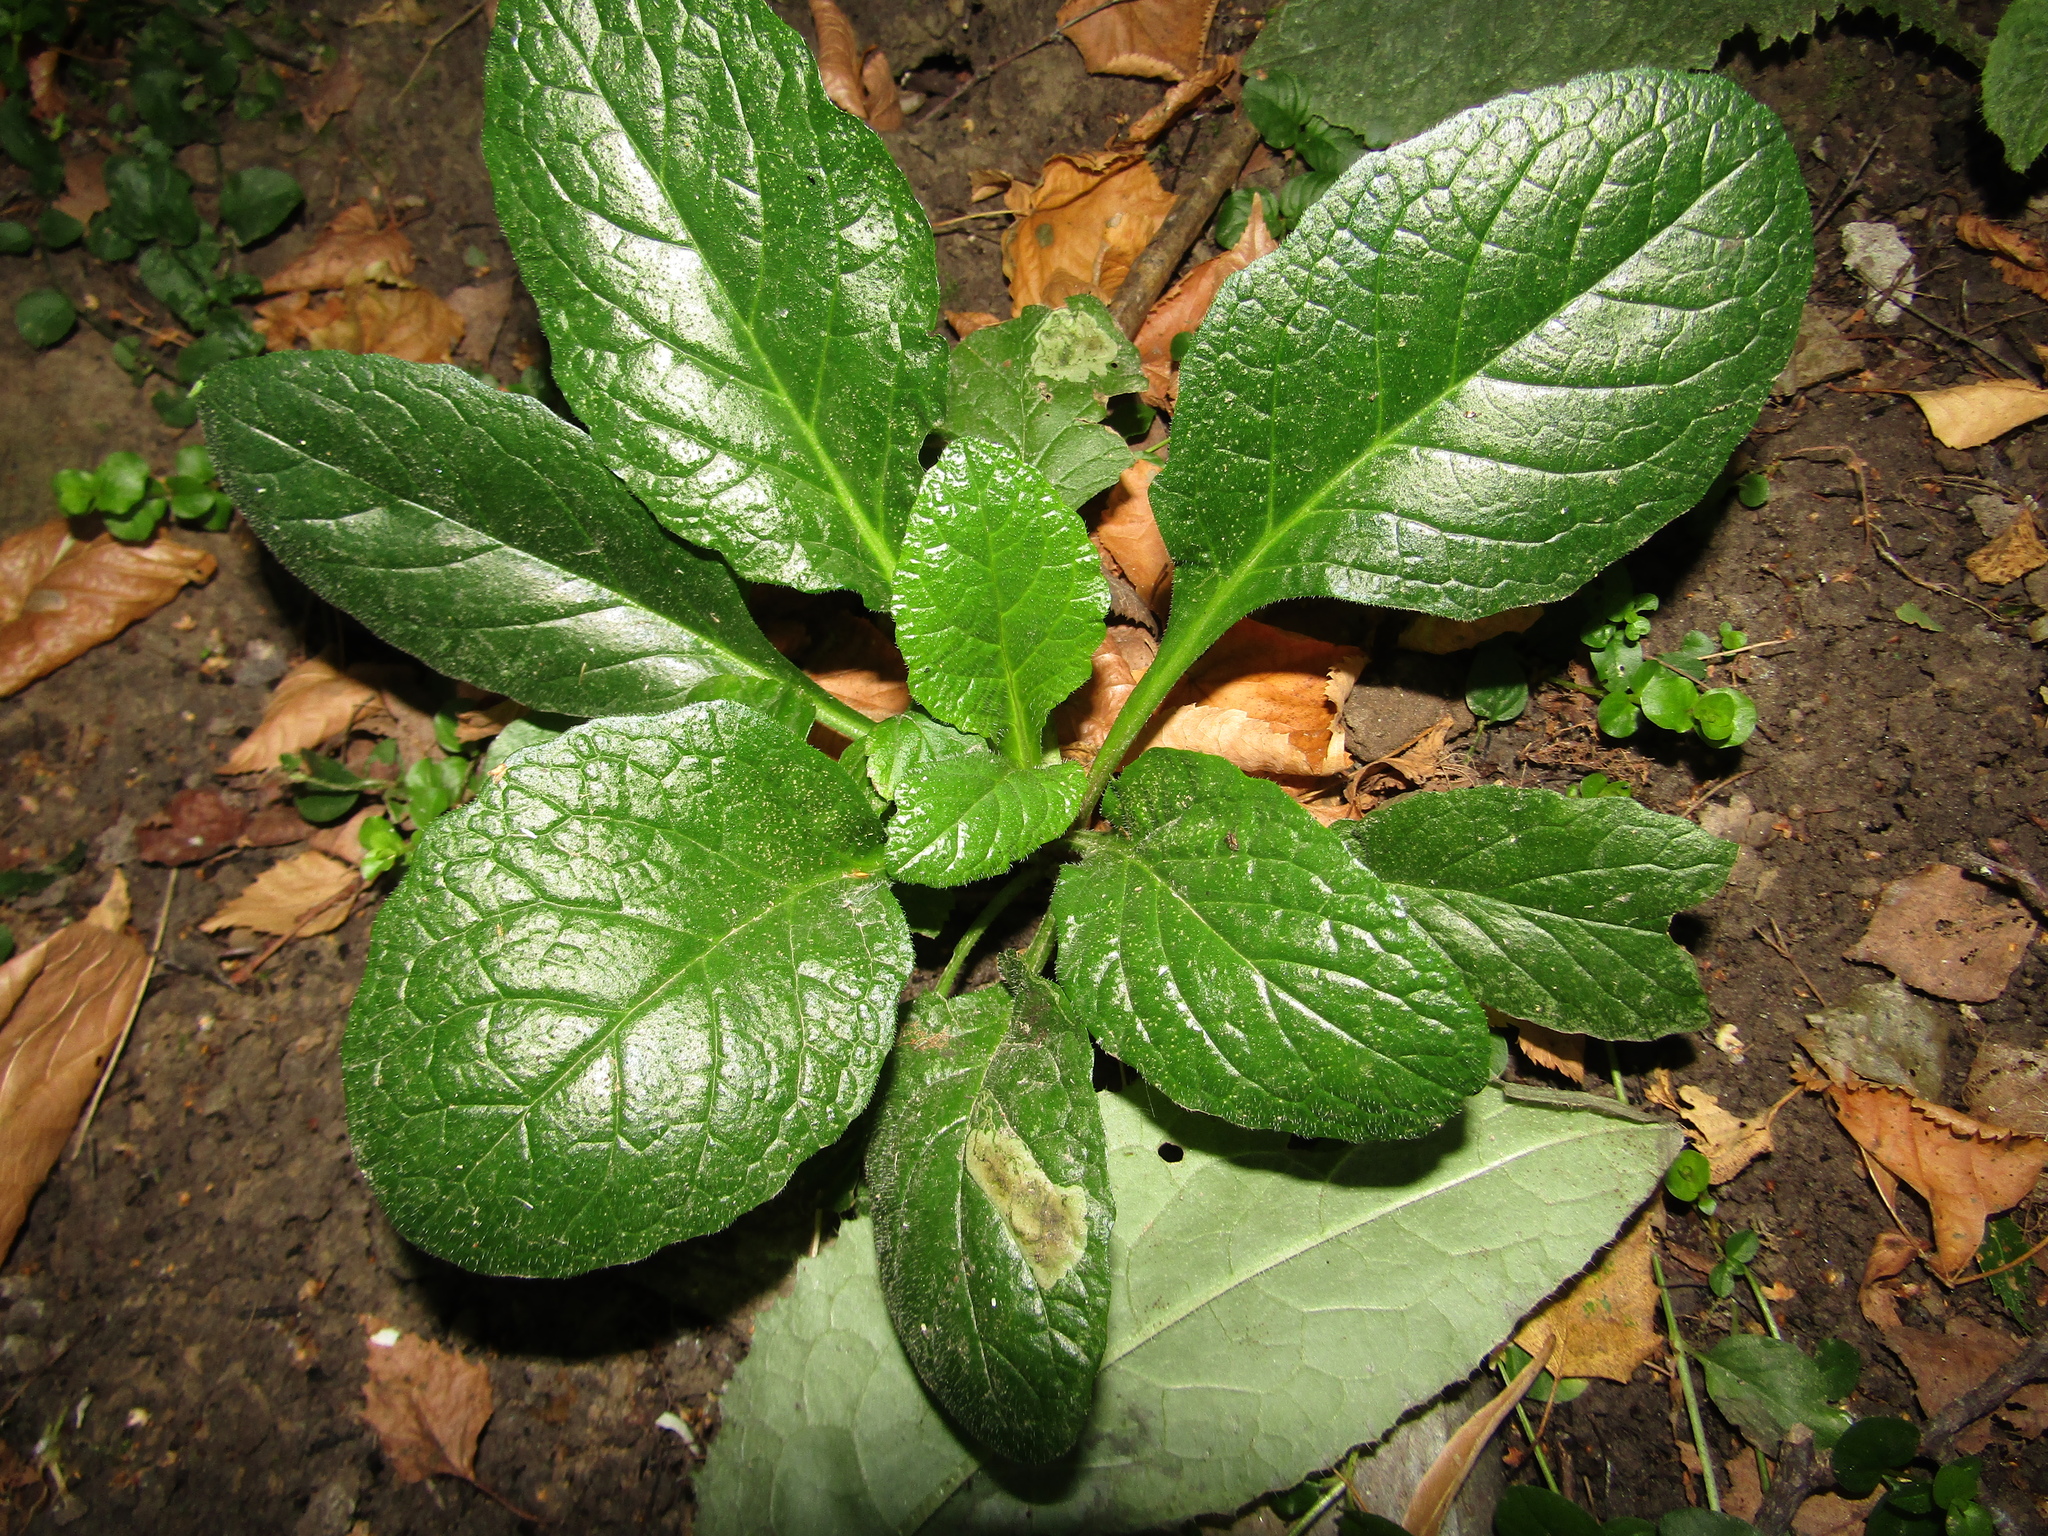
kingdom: Plantae
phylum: Tracheophyta
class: Magnoliopsida
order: Lamiales
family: Lamiaceae
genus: Ajuga
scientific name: Ajuga reptans
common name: Bugle
